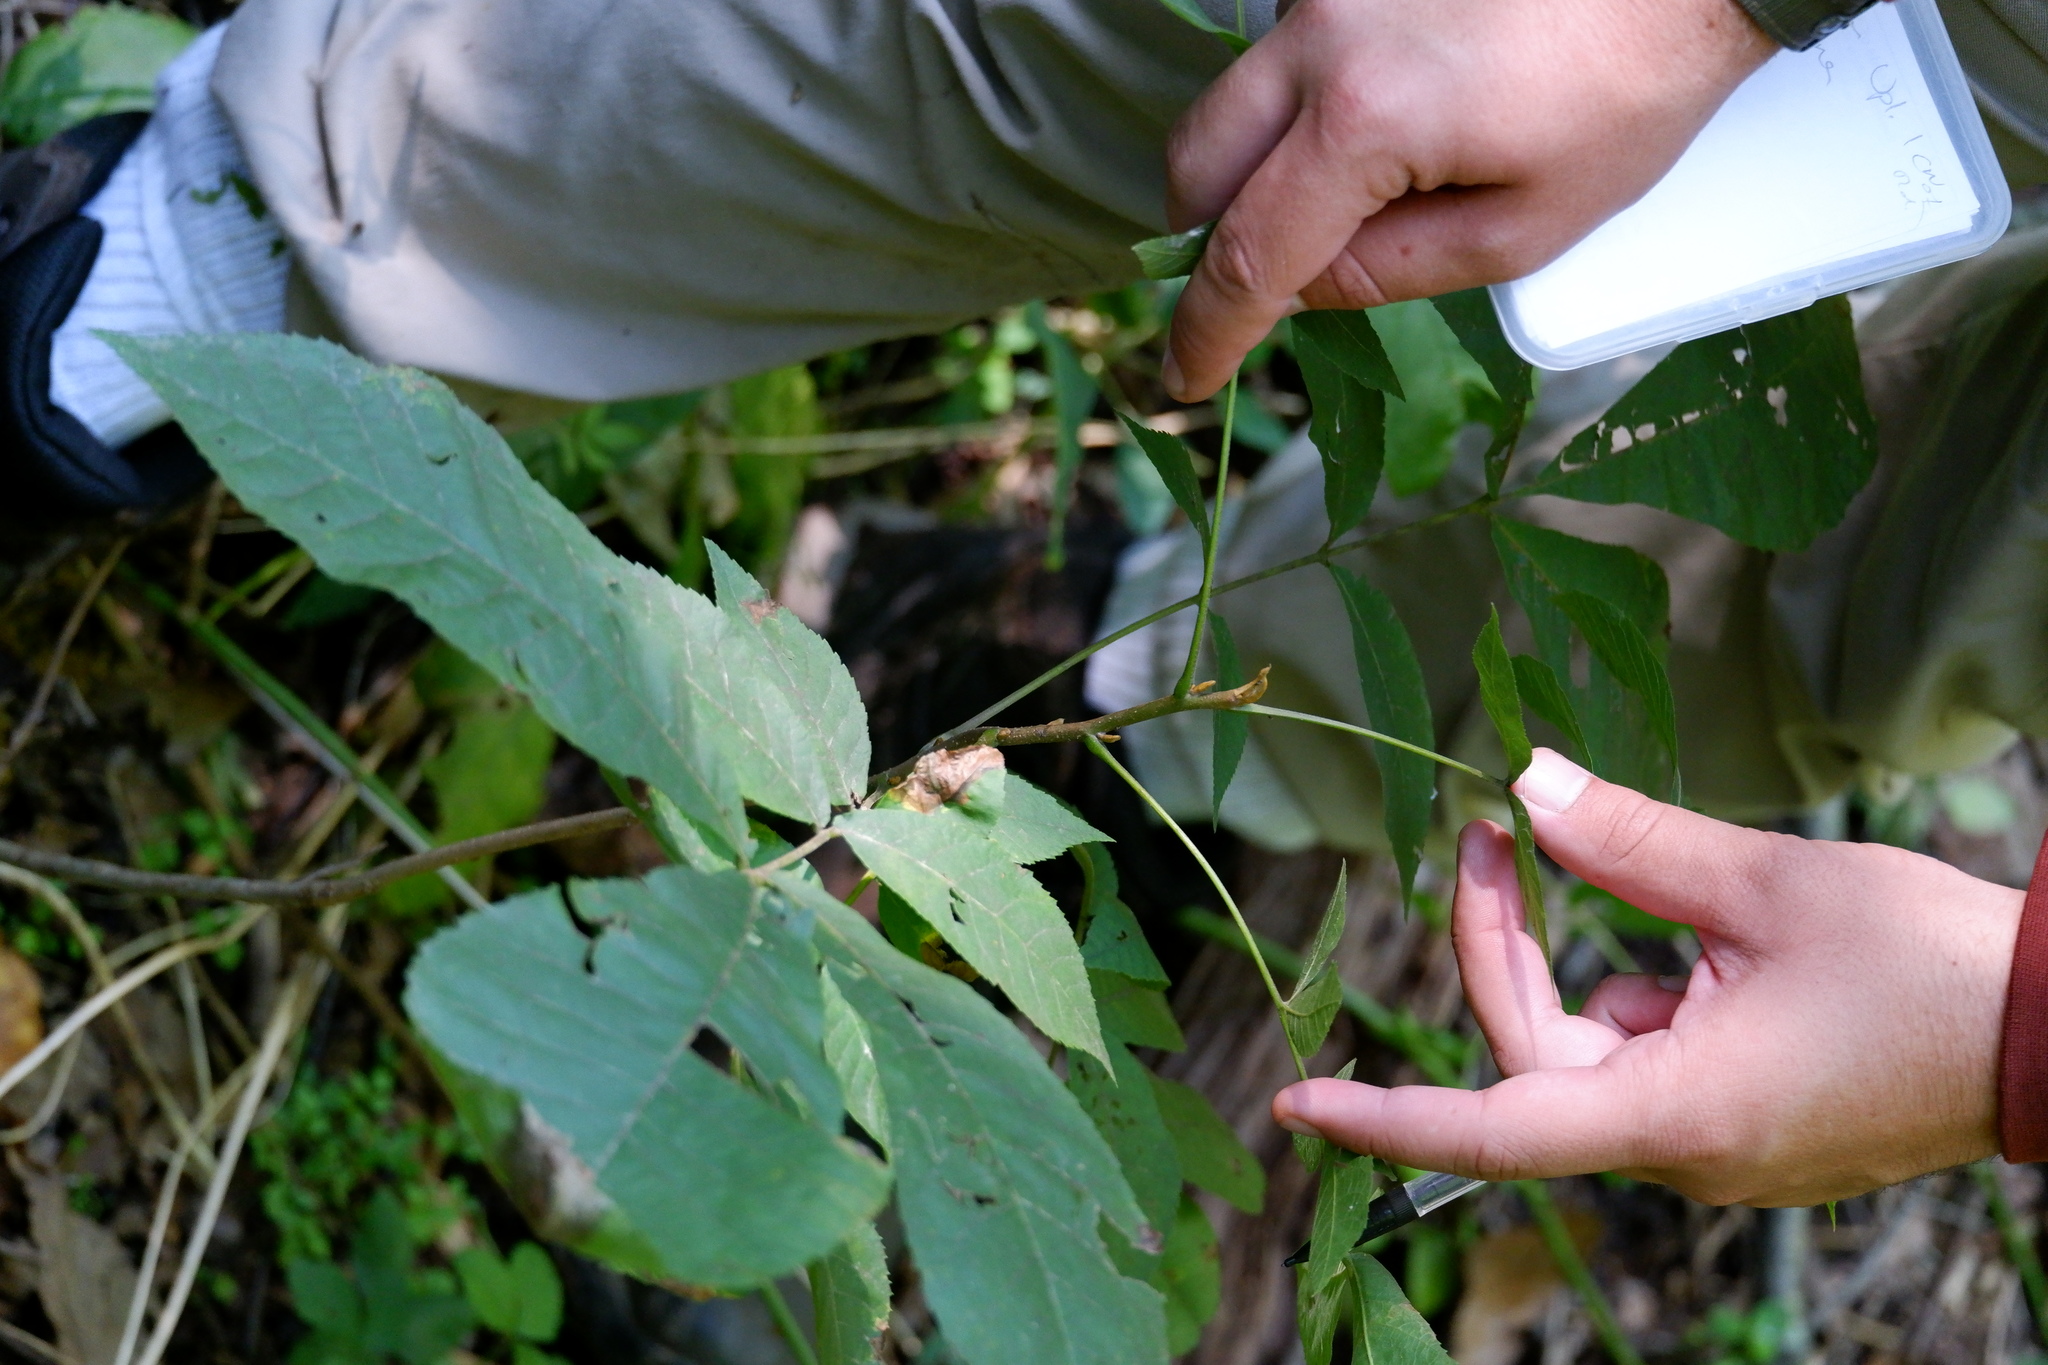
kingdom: Plantae
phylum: Tracheophyta
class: Magnoliopsida
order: Fagales
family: Juglandaceae
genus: Carya
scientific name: Carya cordiformis
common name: Bitternut hickory
